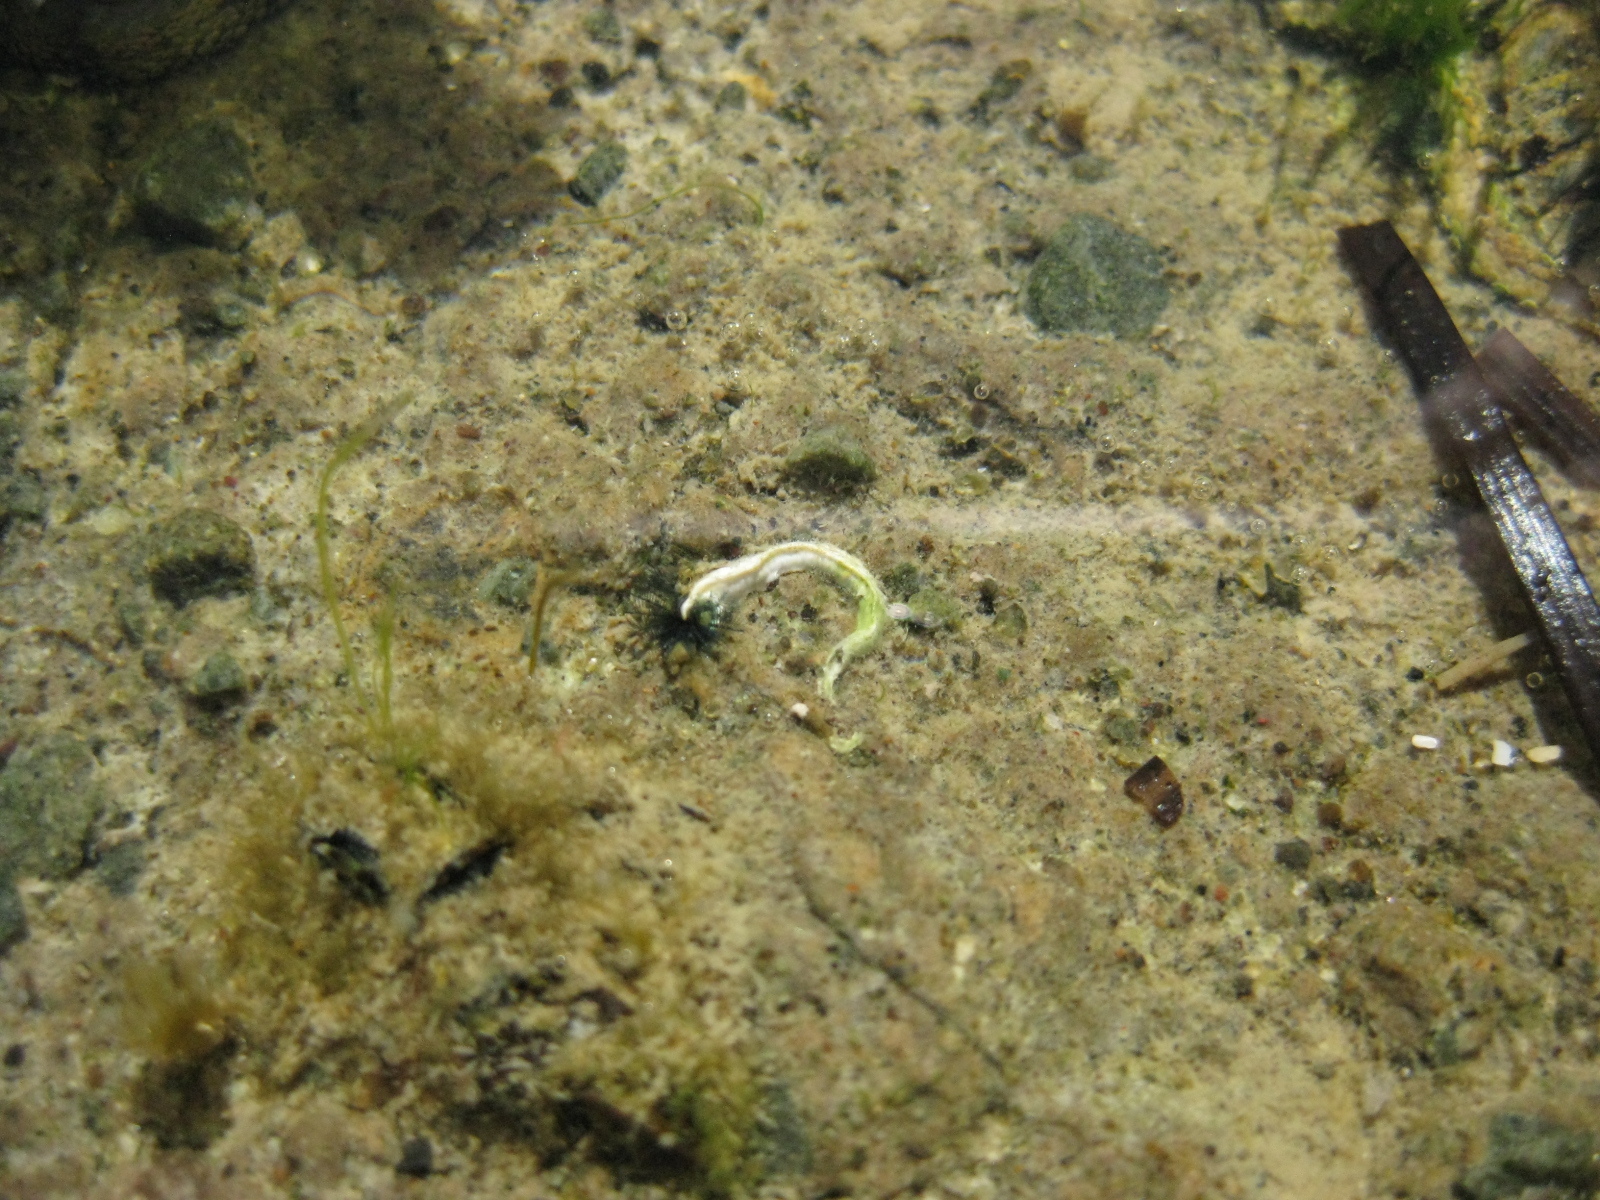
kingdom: Animalia
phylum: Annelida
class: Polychaeta
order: Sabellida
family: Serpulidae
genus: Spirobranchus
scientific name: Spirobranchus cariniferus
